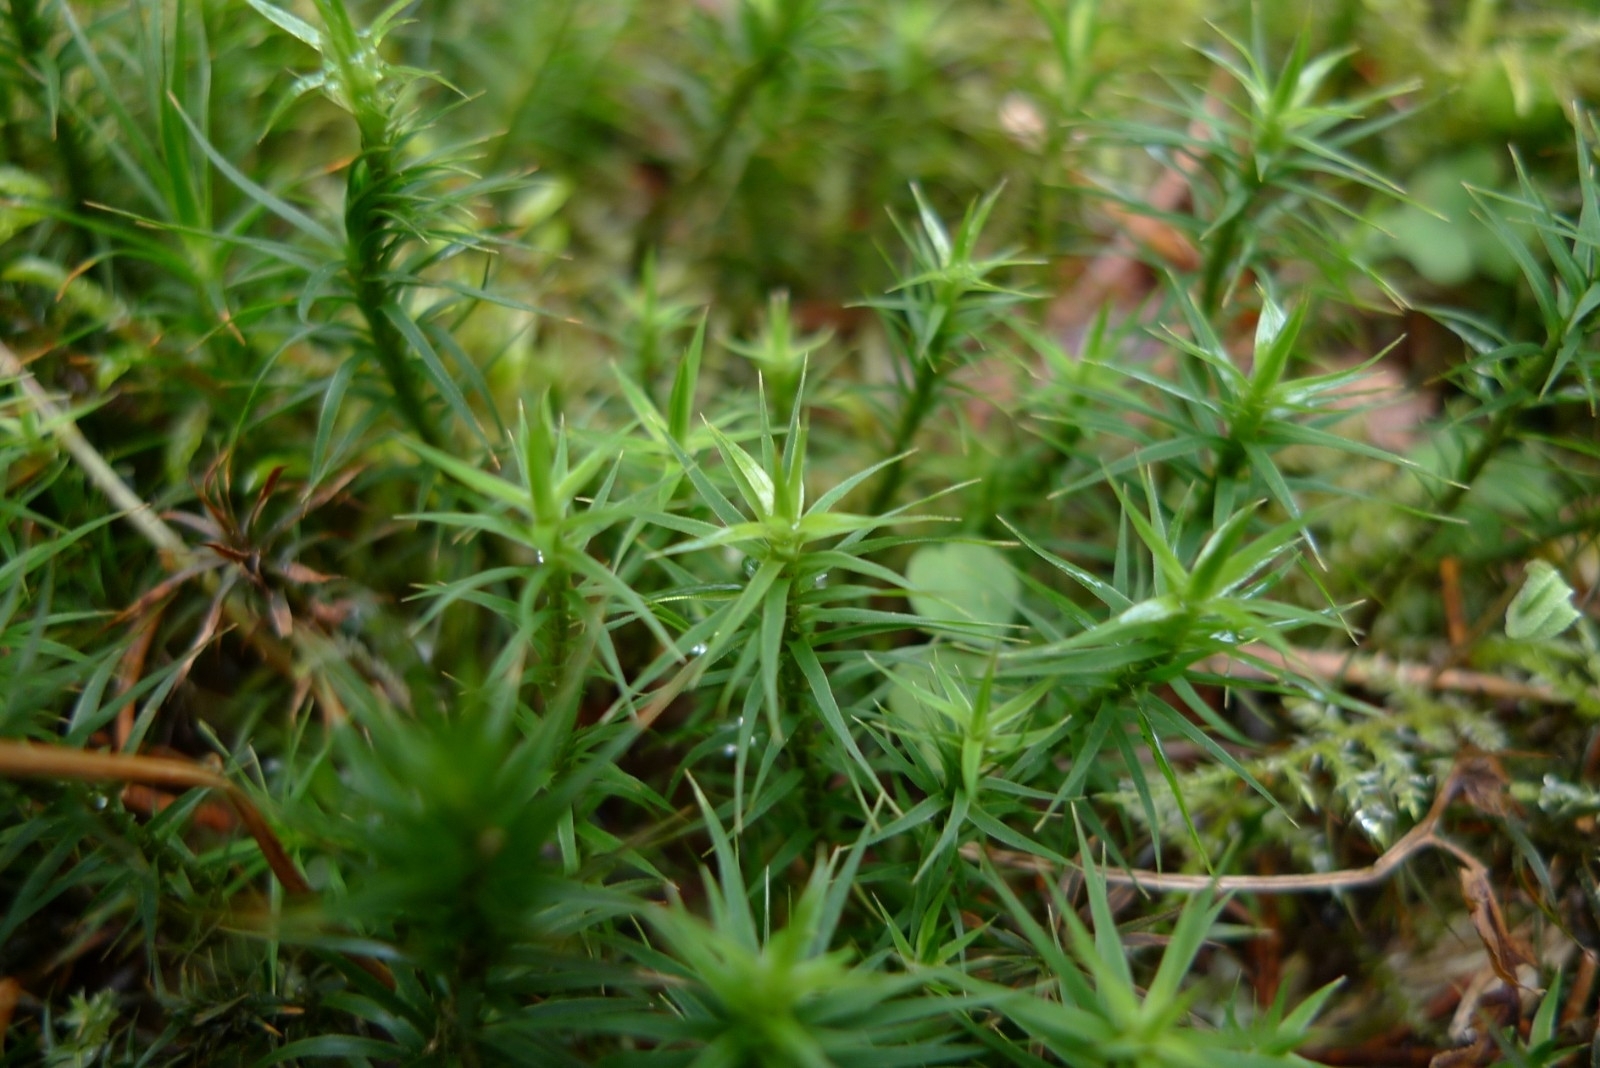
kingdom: Plantae
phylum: Bryophyta
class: Polytrichopsida
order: Polytrichales
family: Polytrichaceae
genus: Polytrichum
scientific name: Polytrichum formosum
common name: Bank haircap moss
